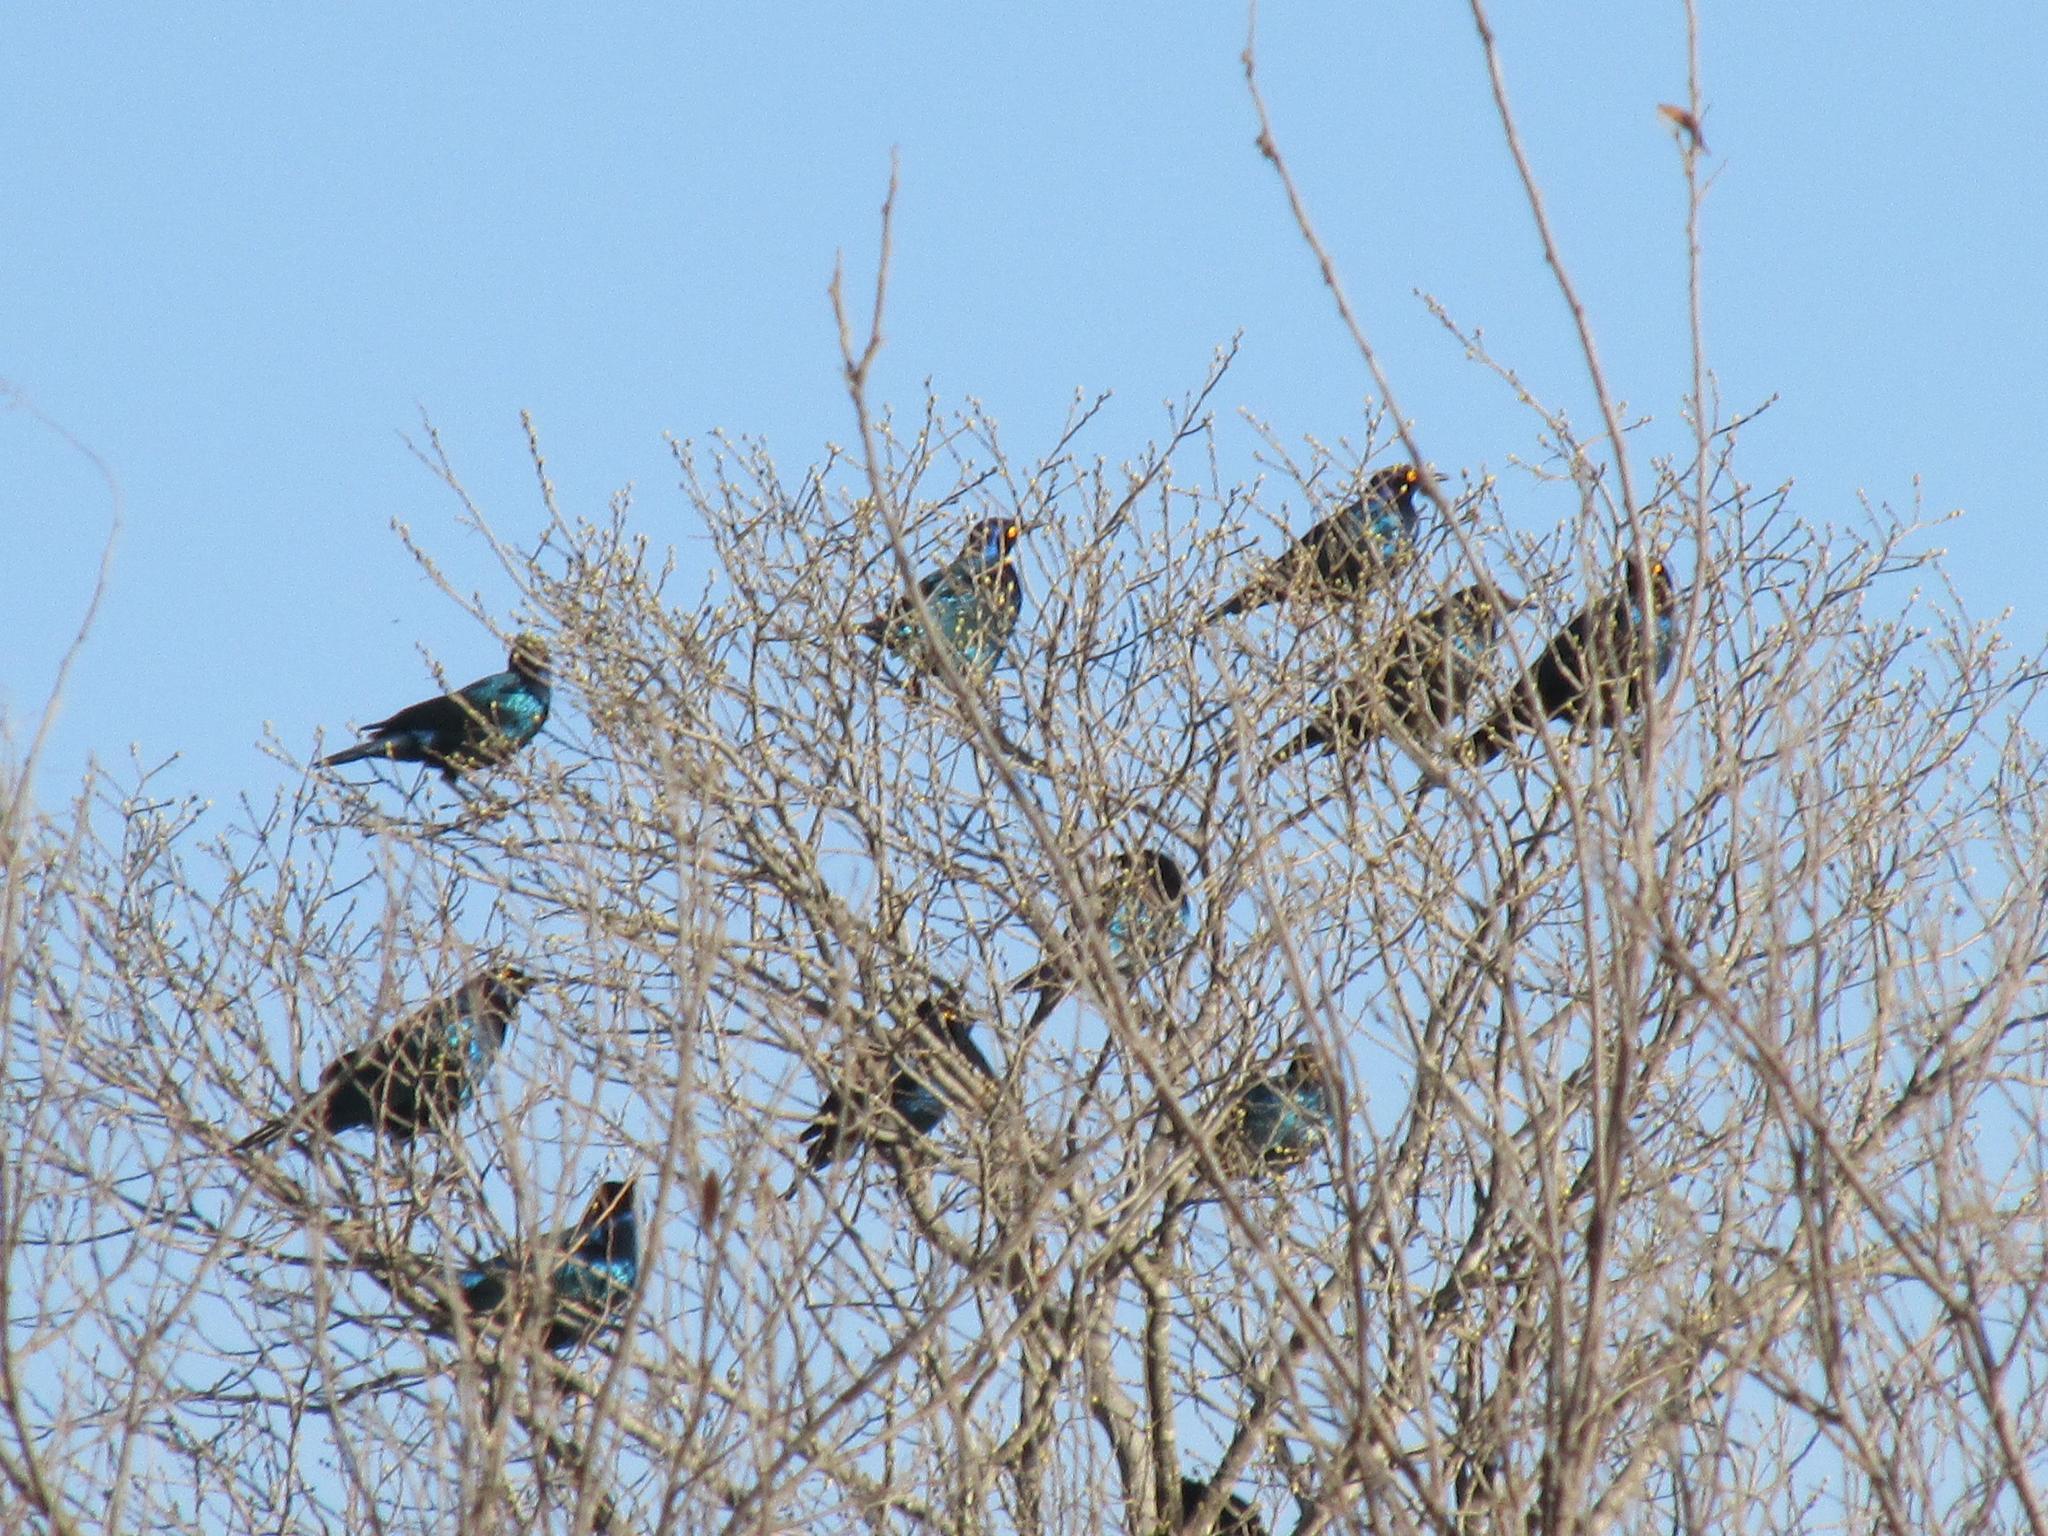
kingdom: Animalia
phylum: Chordata
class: Aves
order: Passeriformes
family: Sturnidae
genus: Lamprotornis
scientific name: Lamprotornis nitens
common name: Cape starling
